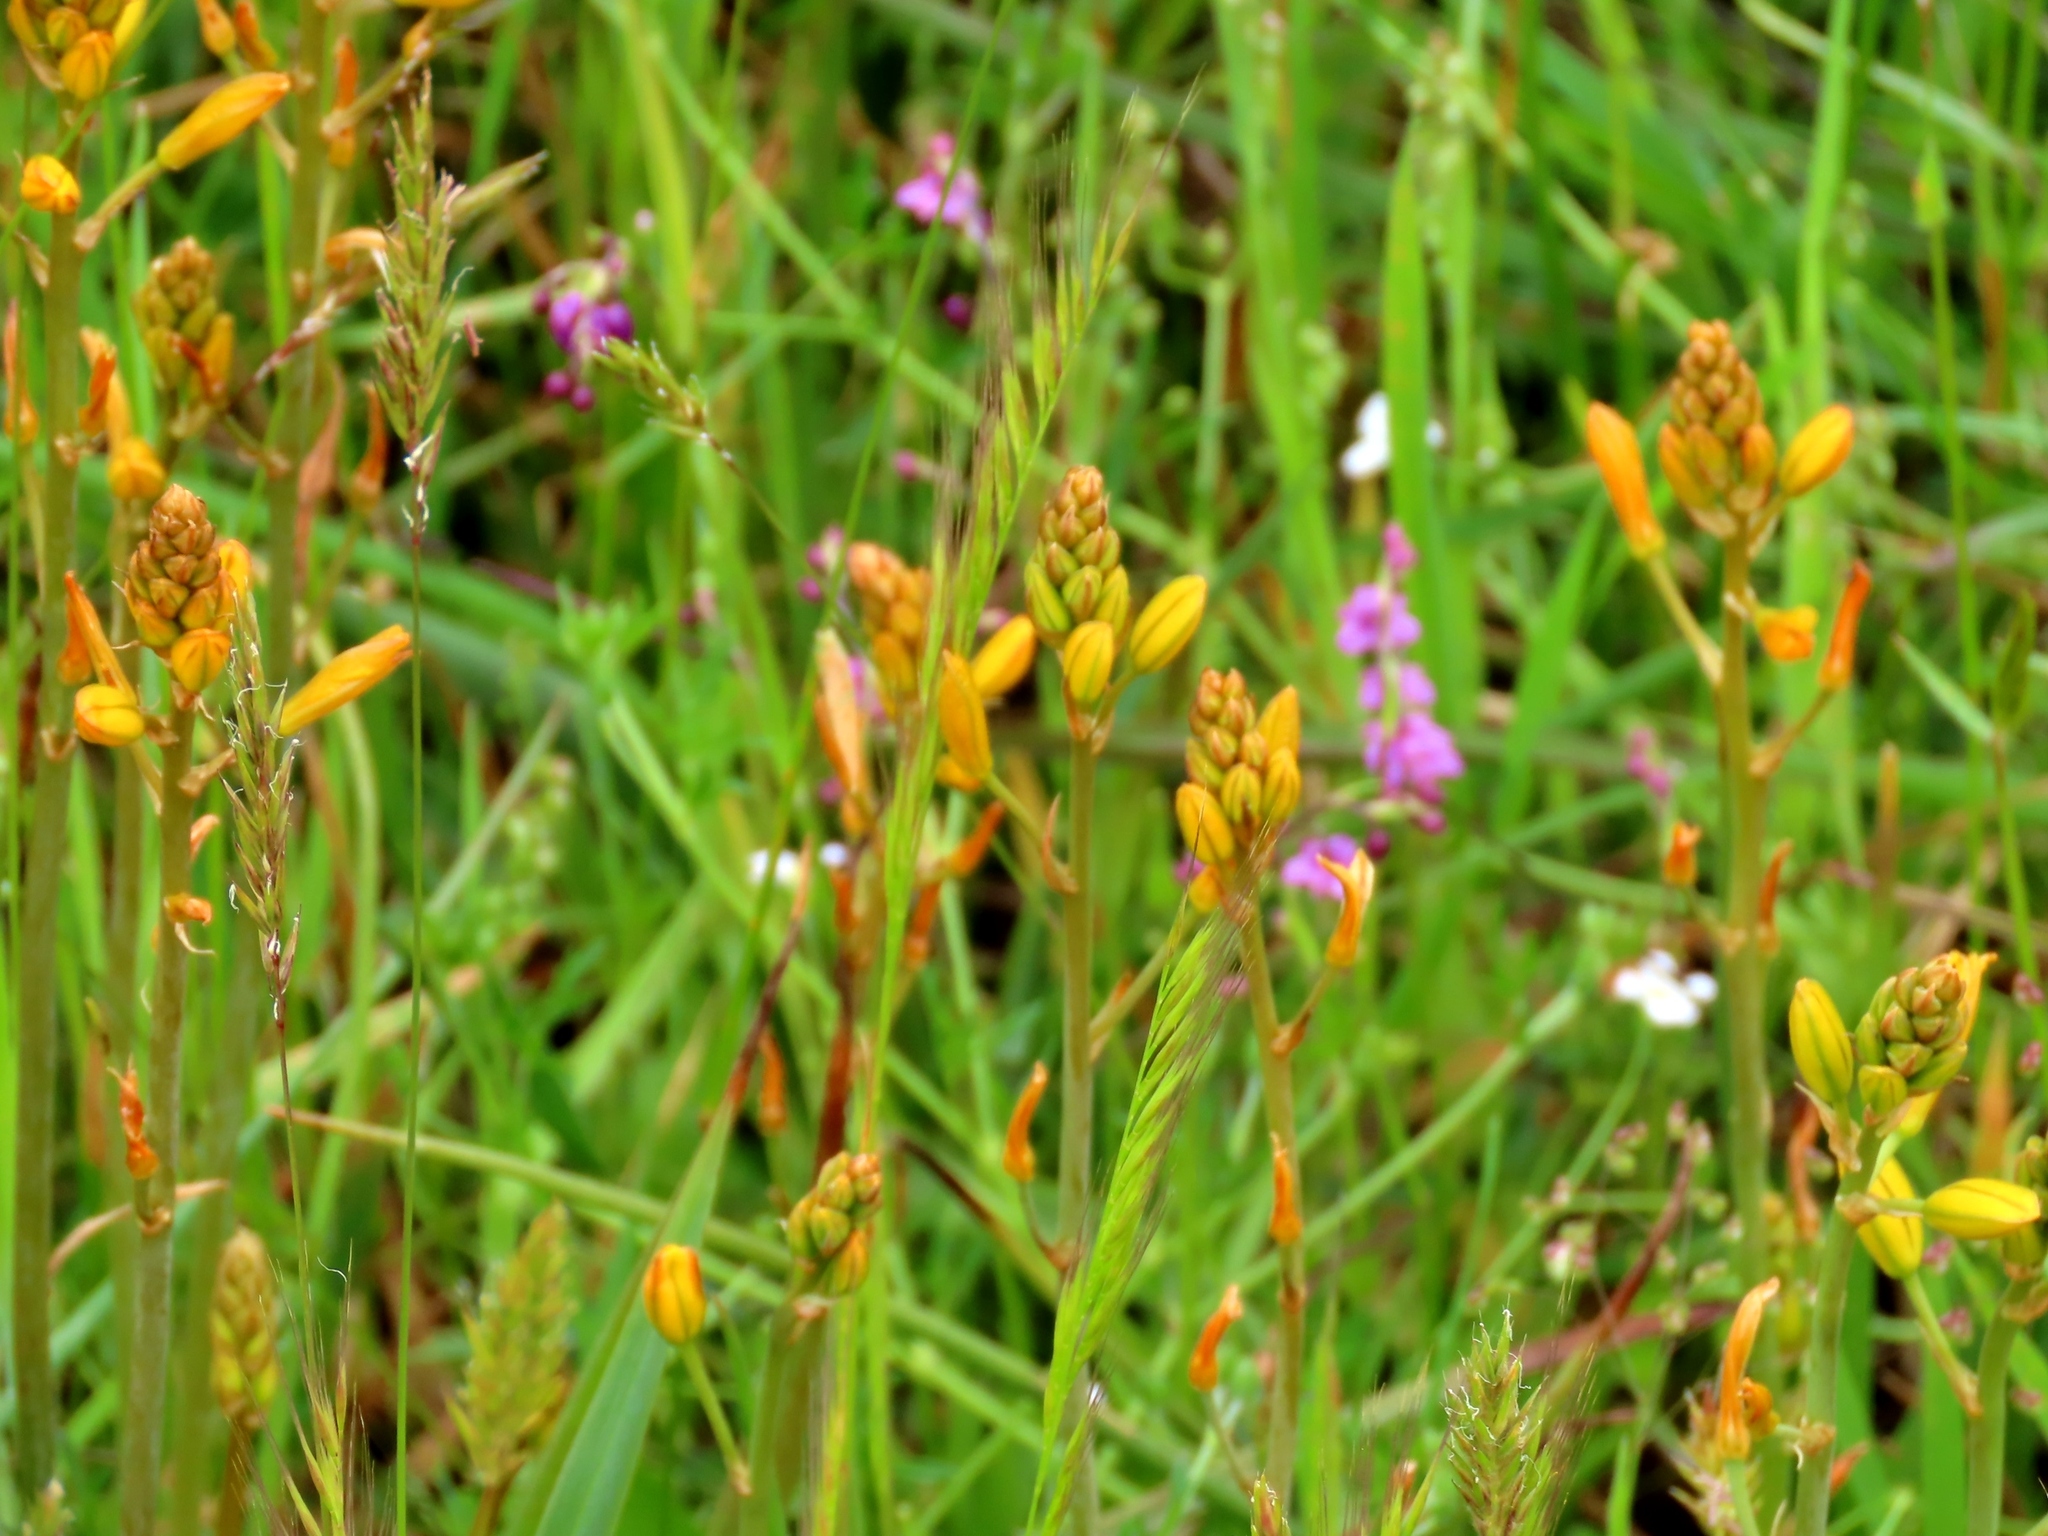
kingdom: Plantae
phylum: Tracheophyta
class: Liliopsida
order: Asparagales
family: Asphodelaceae
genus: Bulbine
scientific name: Bulbine bulbosa
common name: Golden-lily
